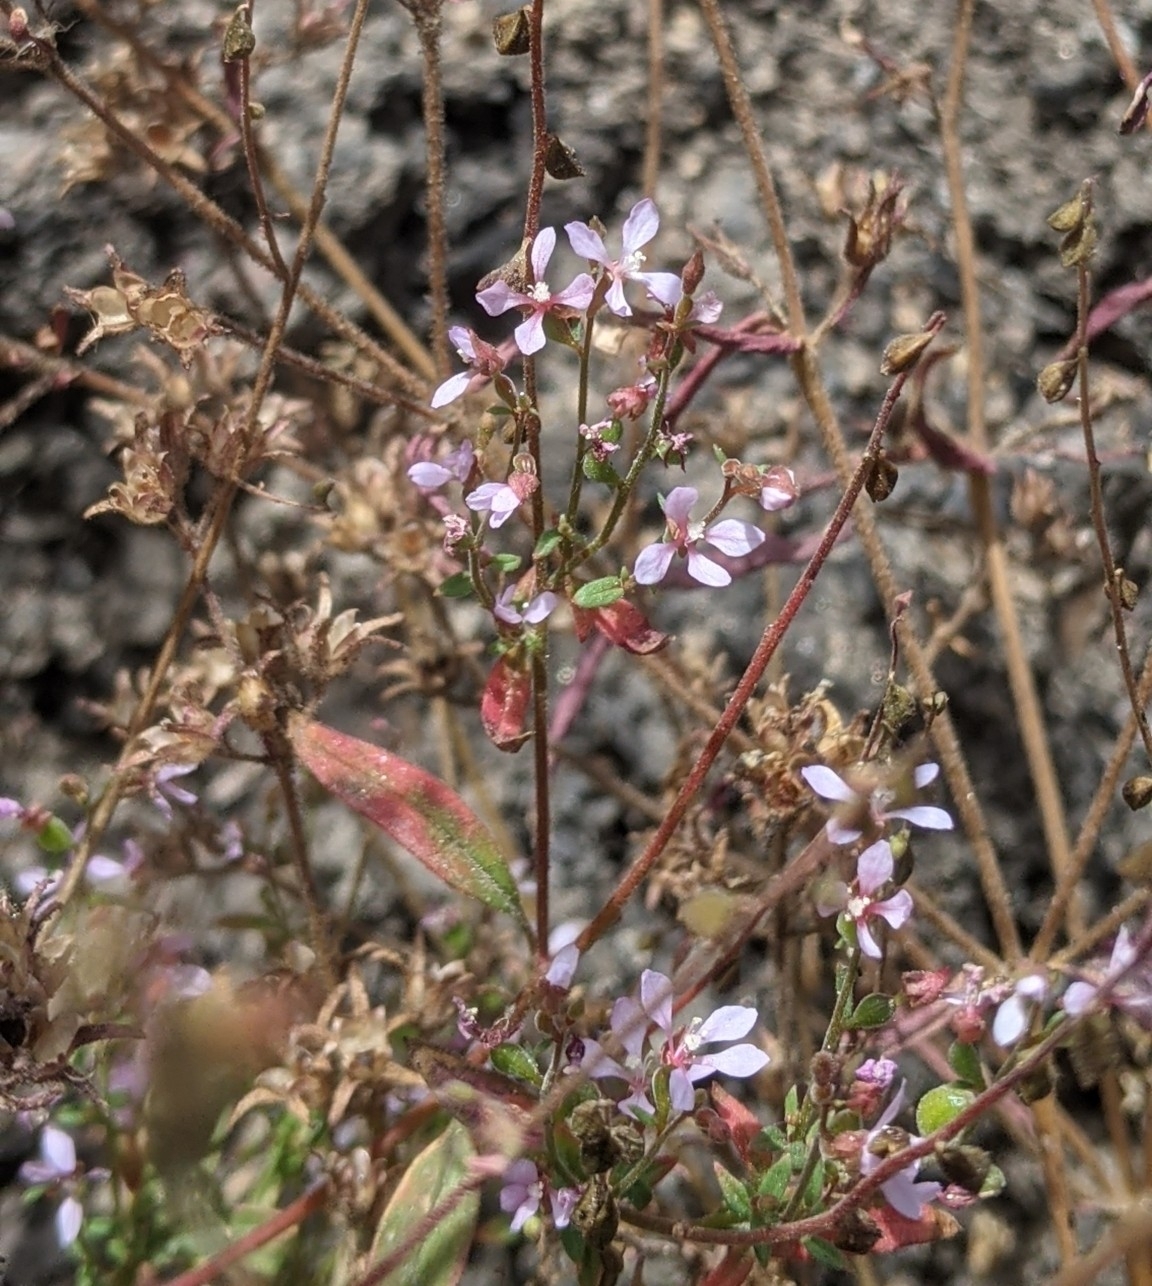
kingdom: Plantae
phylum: Tracheophyta
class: Magnoliopsida
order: Myrtales
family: Onagraceae
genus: Clarkia
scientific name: Clarkia heterandra
